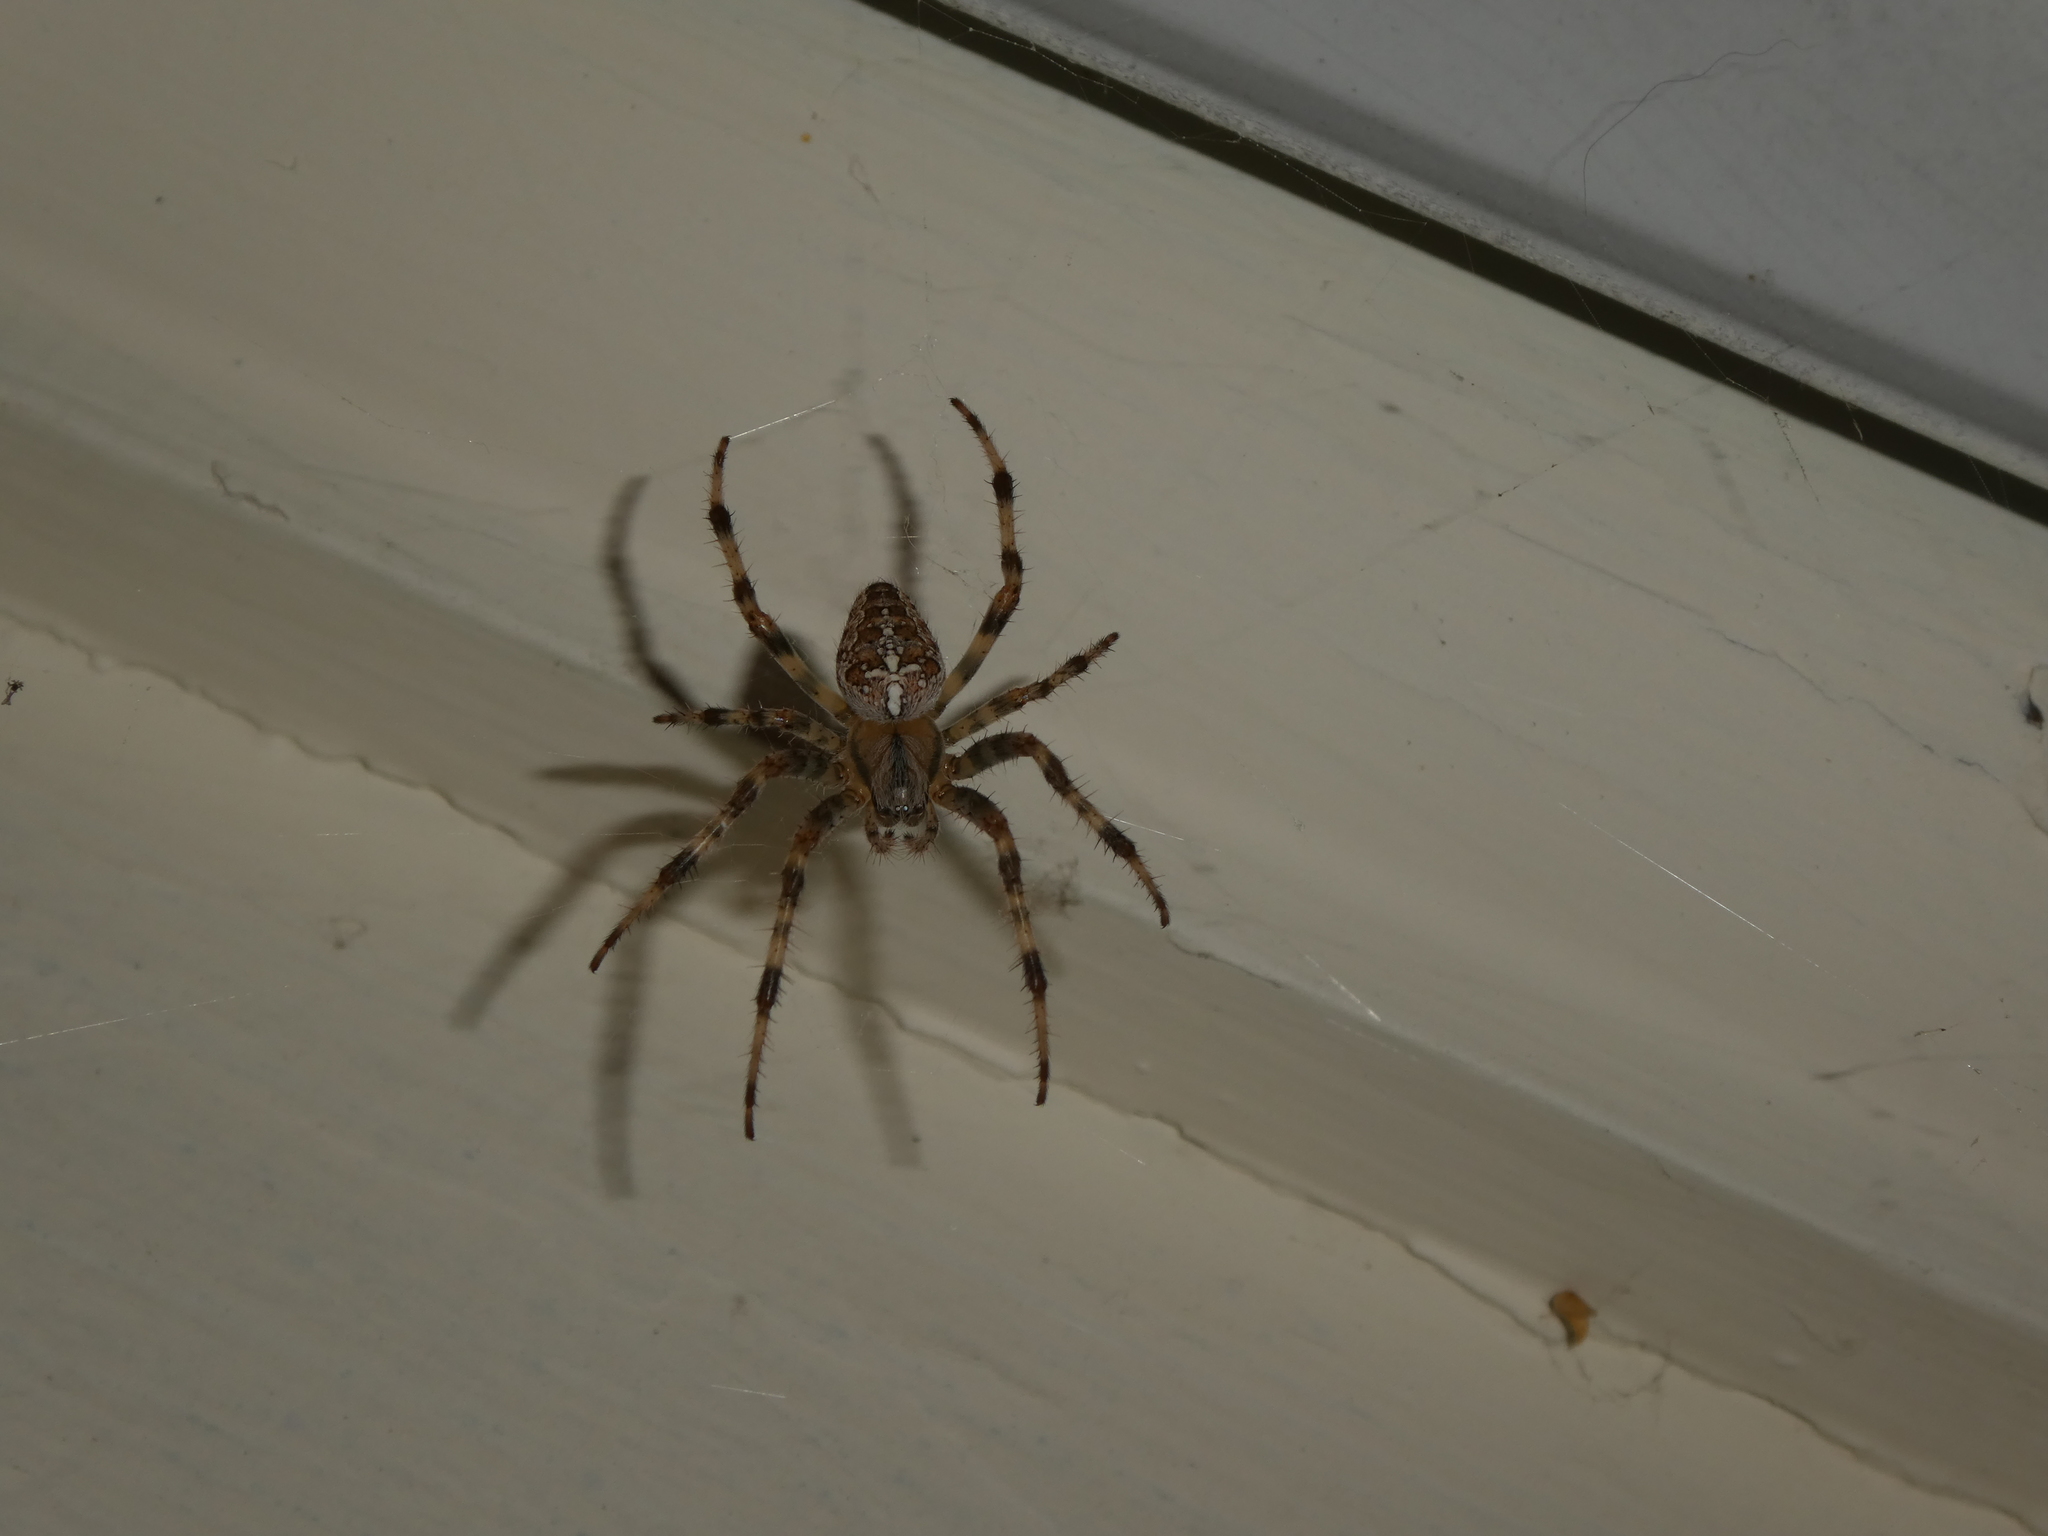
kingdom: Animalia
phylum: Arthropoda
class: Arachnida
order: Araneae
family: Araneidae
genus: Araneus
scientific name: Araneus diadematus
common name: Cross orbweaver
